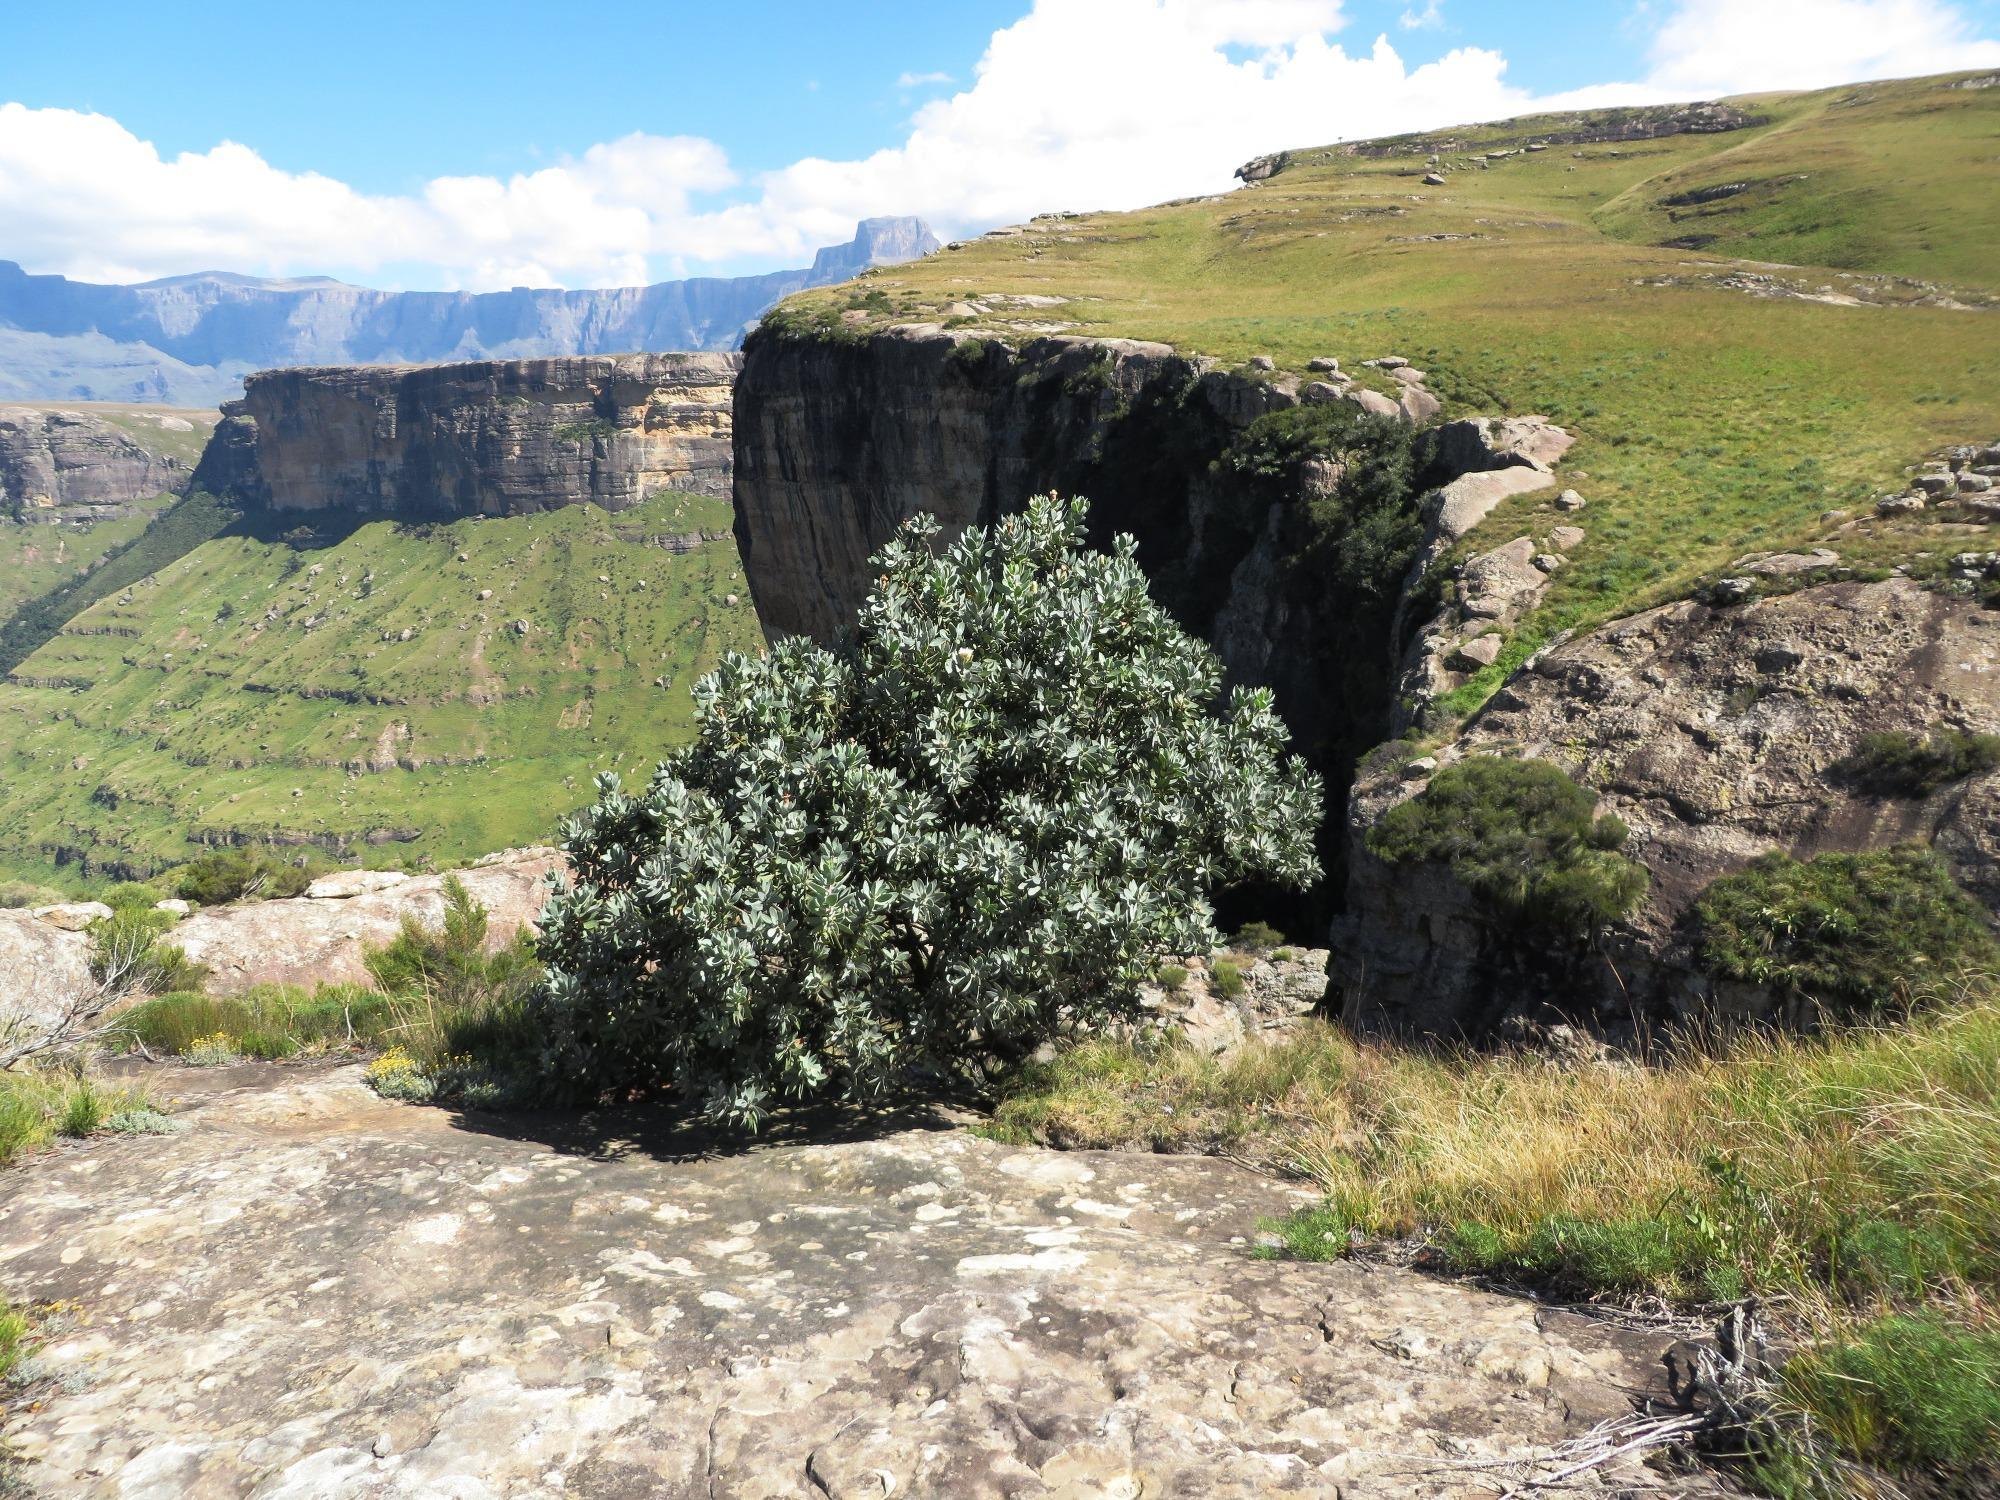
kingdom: Plantae
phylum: Tracheophyta
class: Magnoliopsida
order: Proteales
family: Proteaceae
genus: Protea
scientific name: Protea subvestita
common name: Lip-flower sugarbush
